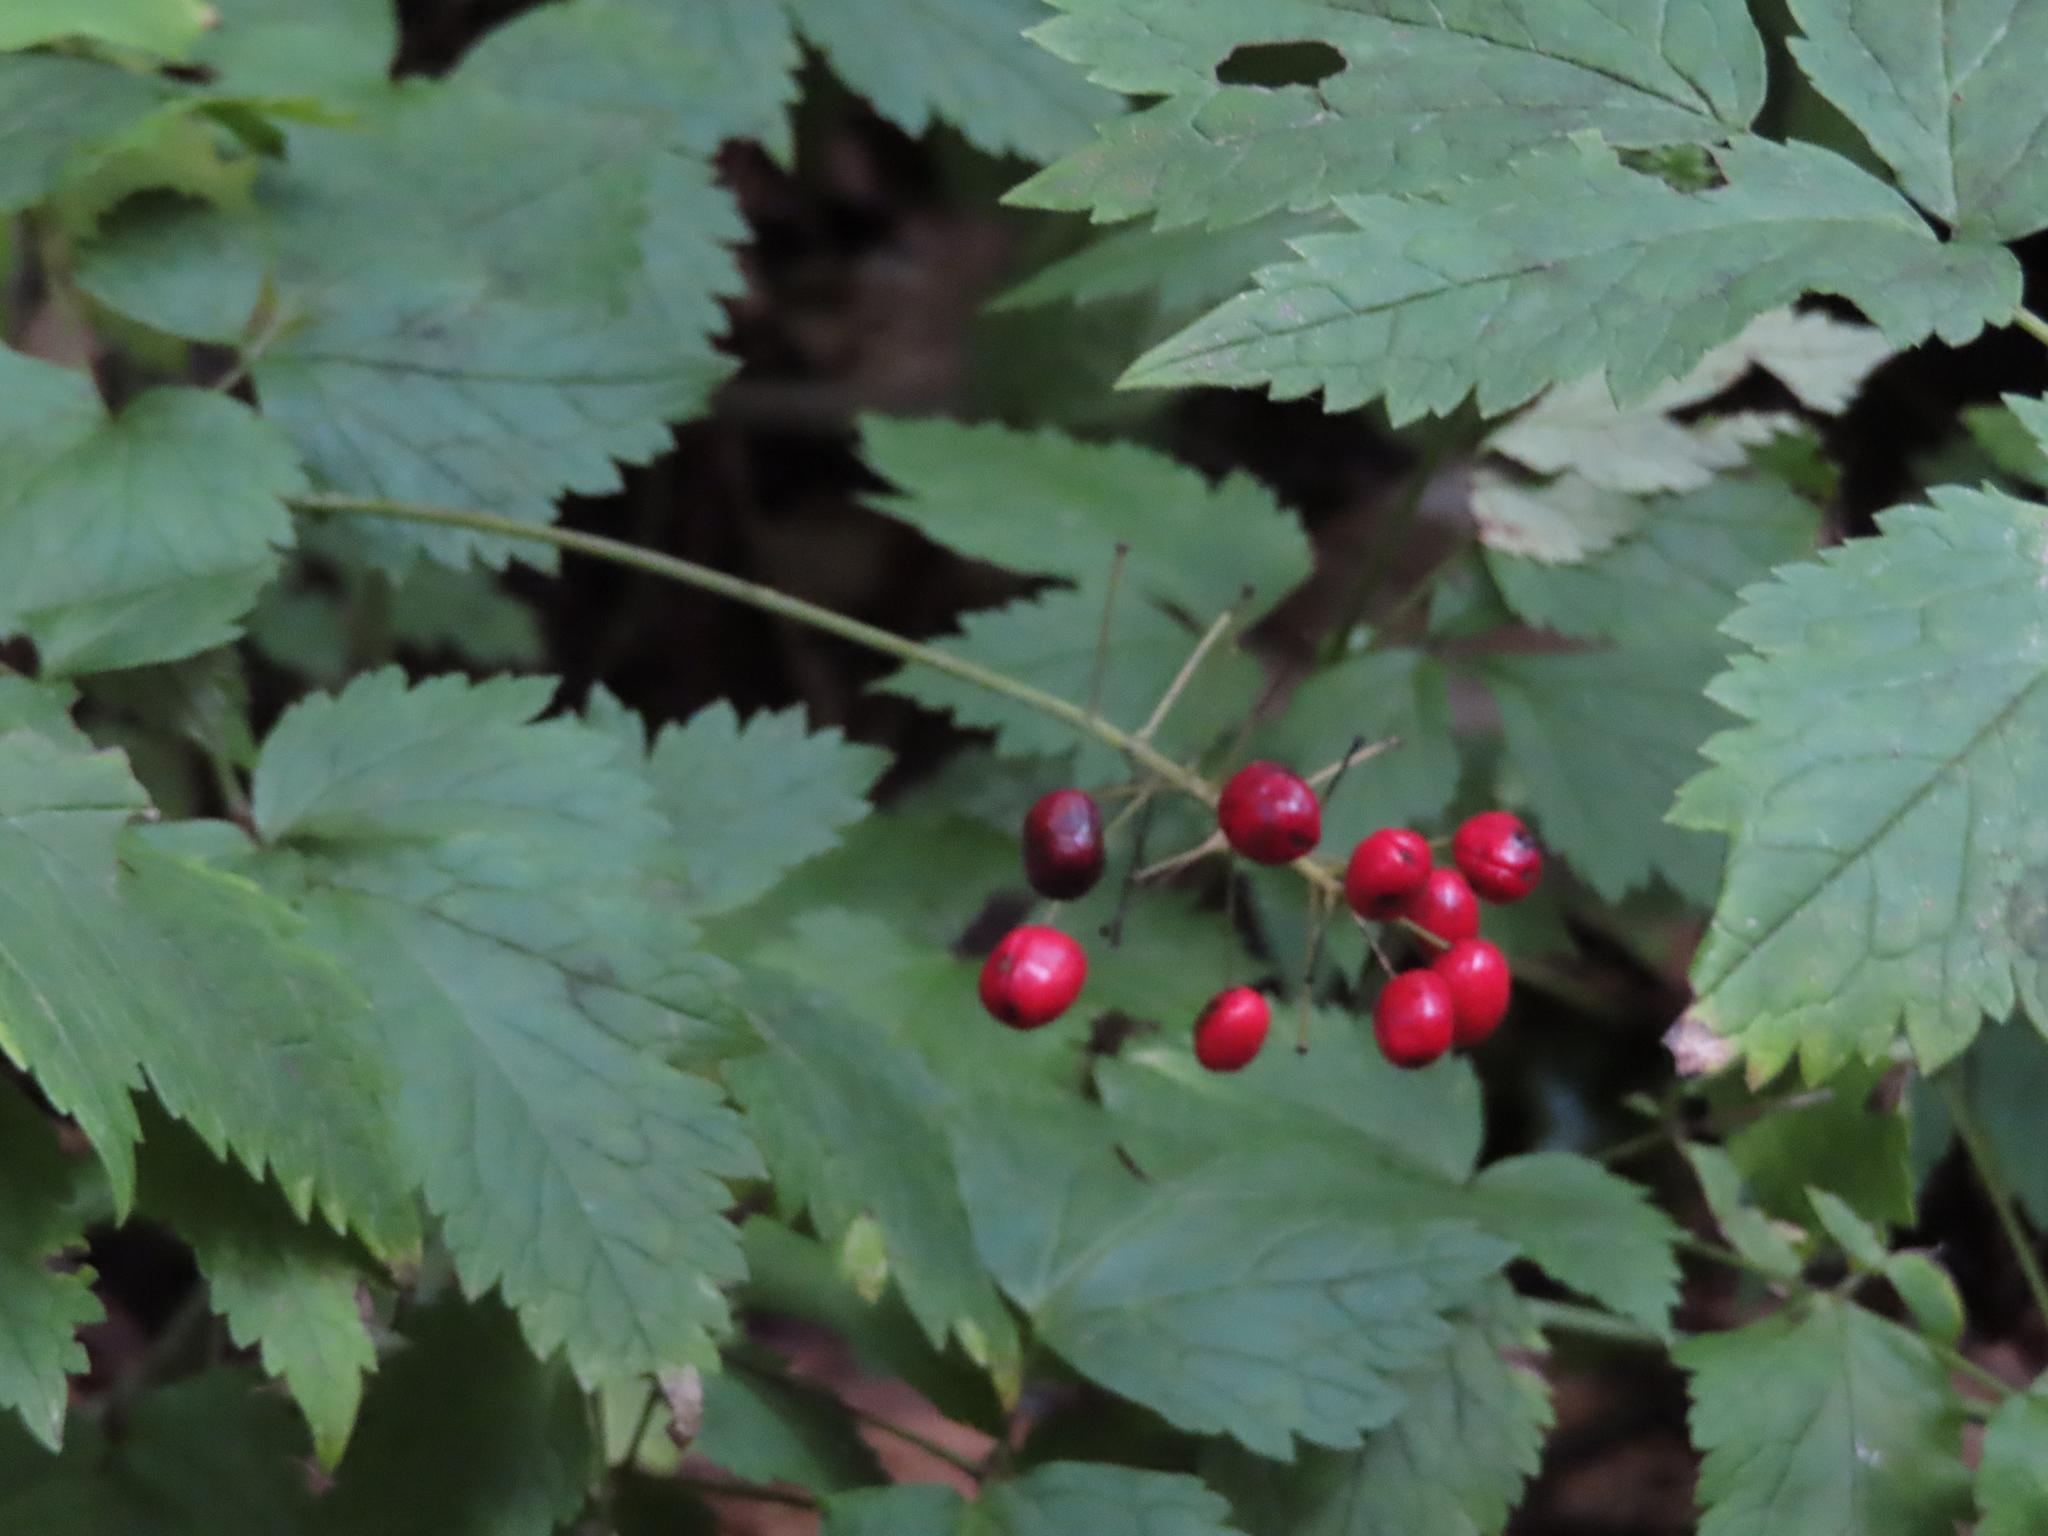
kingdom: Plantae
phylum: Tracheophyta
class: Magnoliopsida
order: Ranunculales
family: Ranunculaceae
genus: Actaea
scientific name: Actaea rubra
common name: Red baneberry
